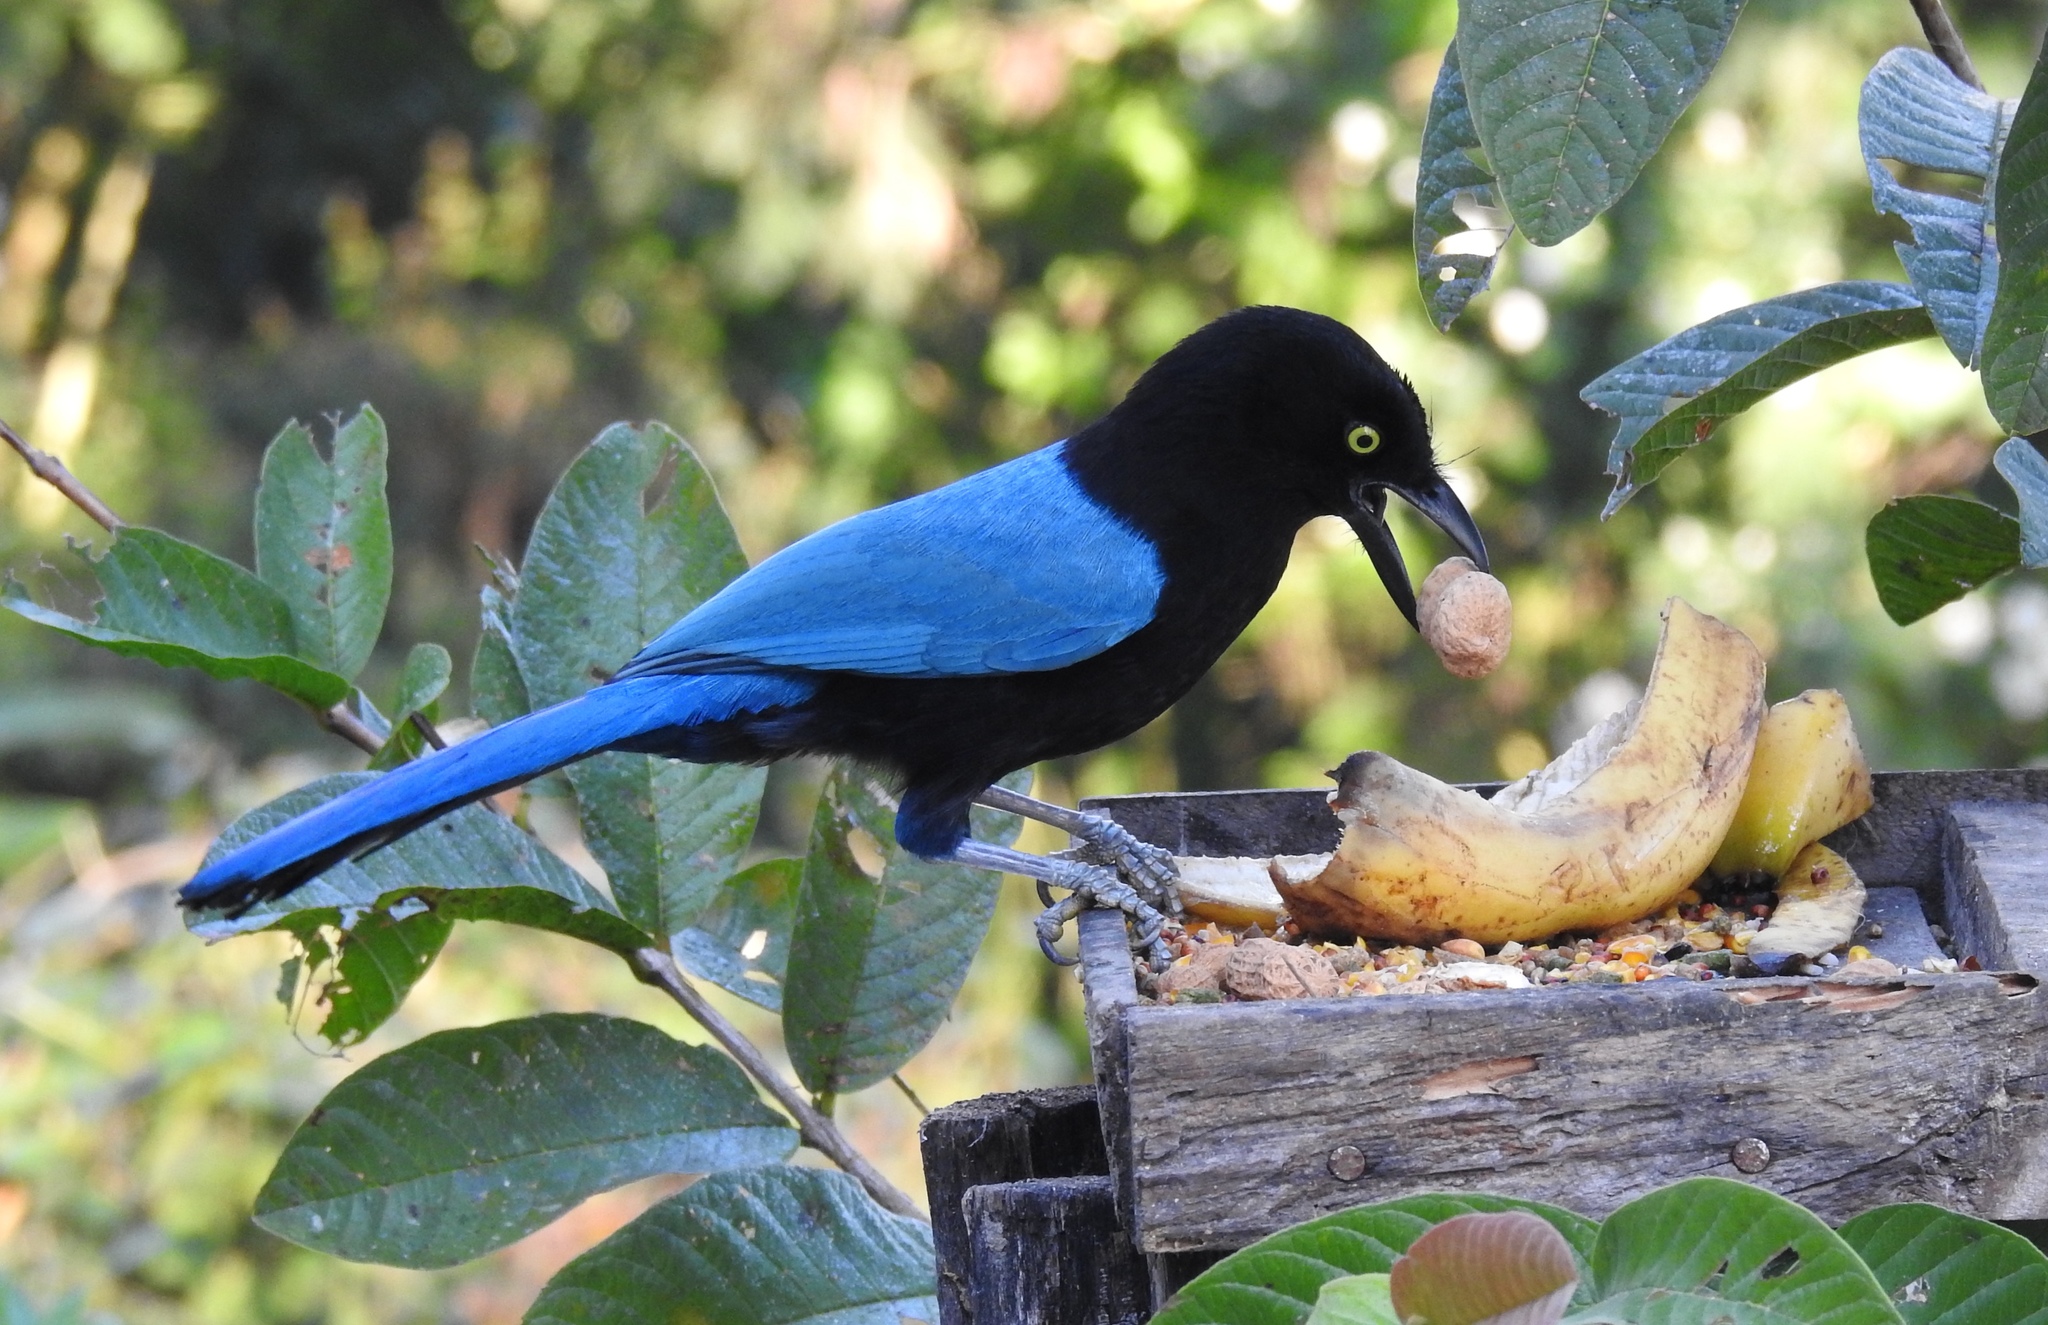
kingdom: Animalia
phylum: Chordata
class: Aves
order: Passeriformes
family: Corvidae
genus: Cyanocorax
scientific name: Cyanocorax sanblasianus
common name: San blas jay
